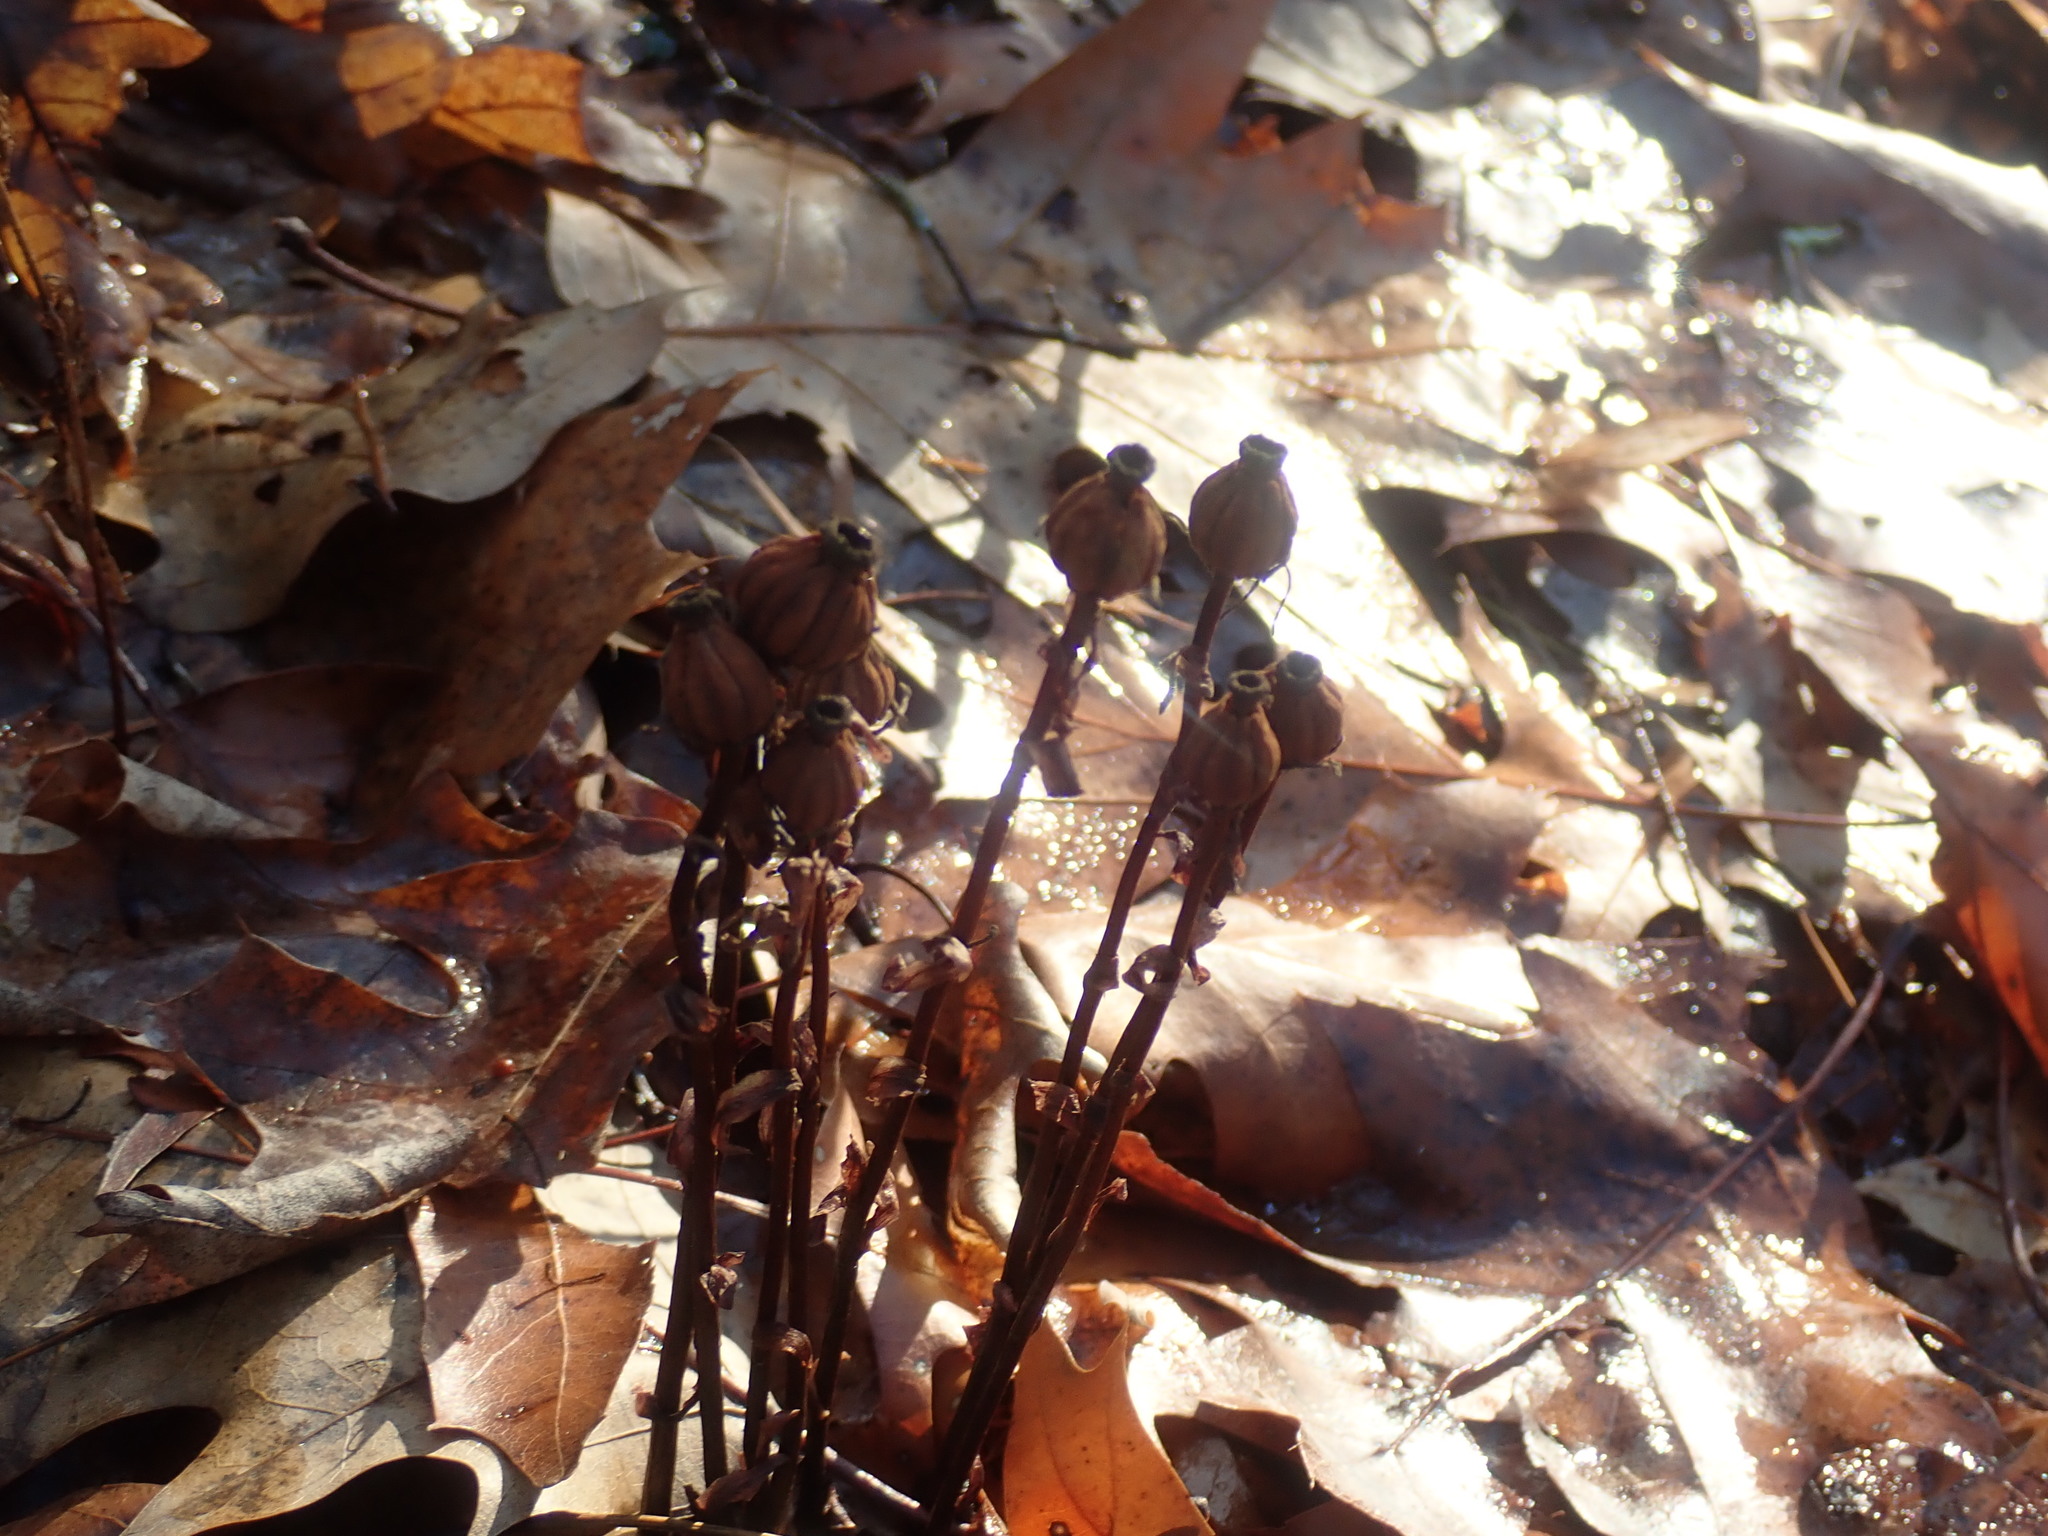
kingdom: Plantae
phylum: Tracheophyta
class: Magnoliopsida
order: Ericales
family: Ericaceae
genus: Monotropa
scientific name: Monotropa uniflora
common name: Convulsion root
